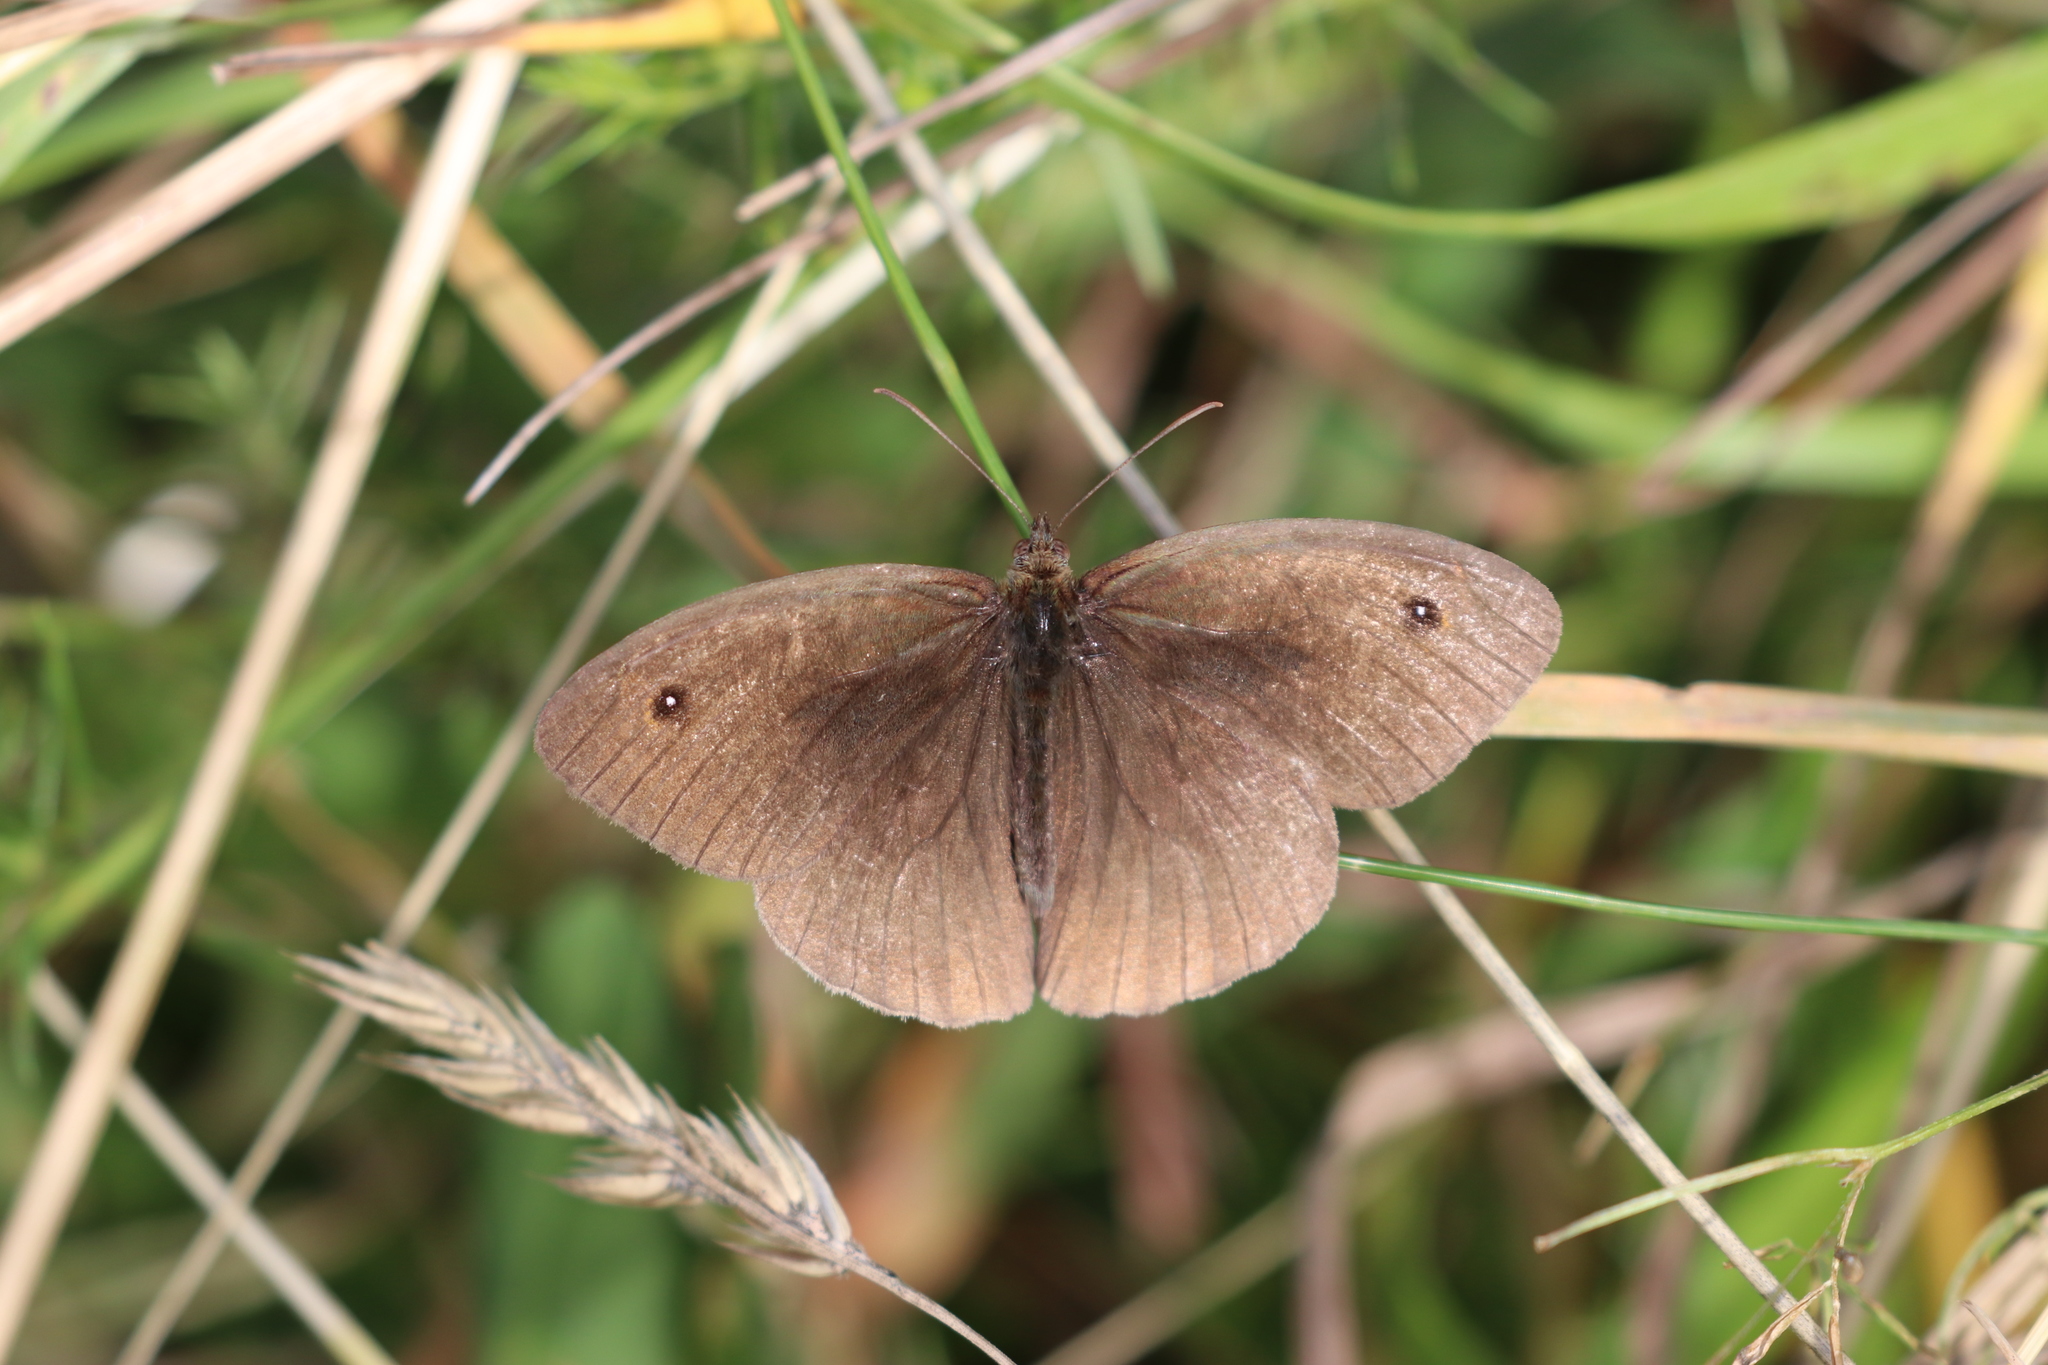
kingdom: Animalia
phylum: Arthropoda
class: Insecta
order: Lepidoptera
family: Nymphalidae
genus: Maniola
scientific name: Maniola jurtina
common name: Meadow brown
